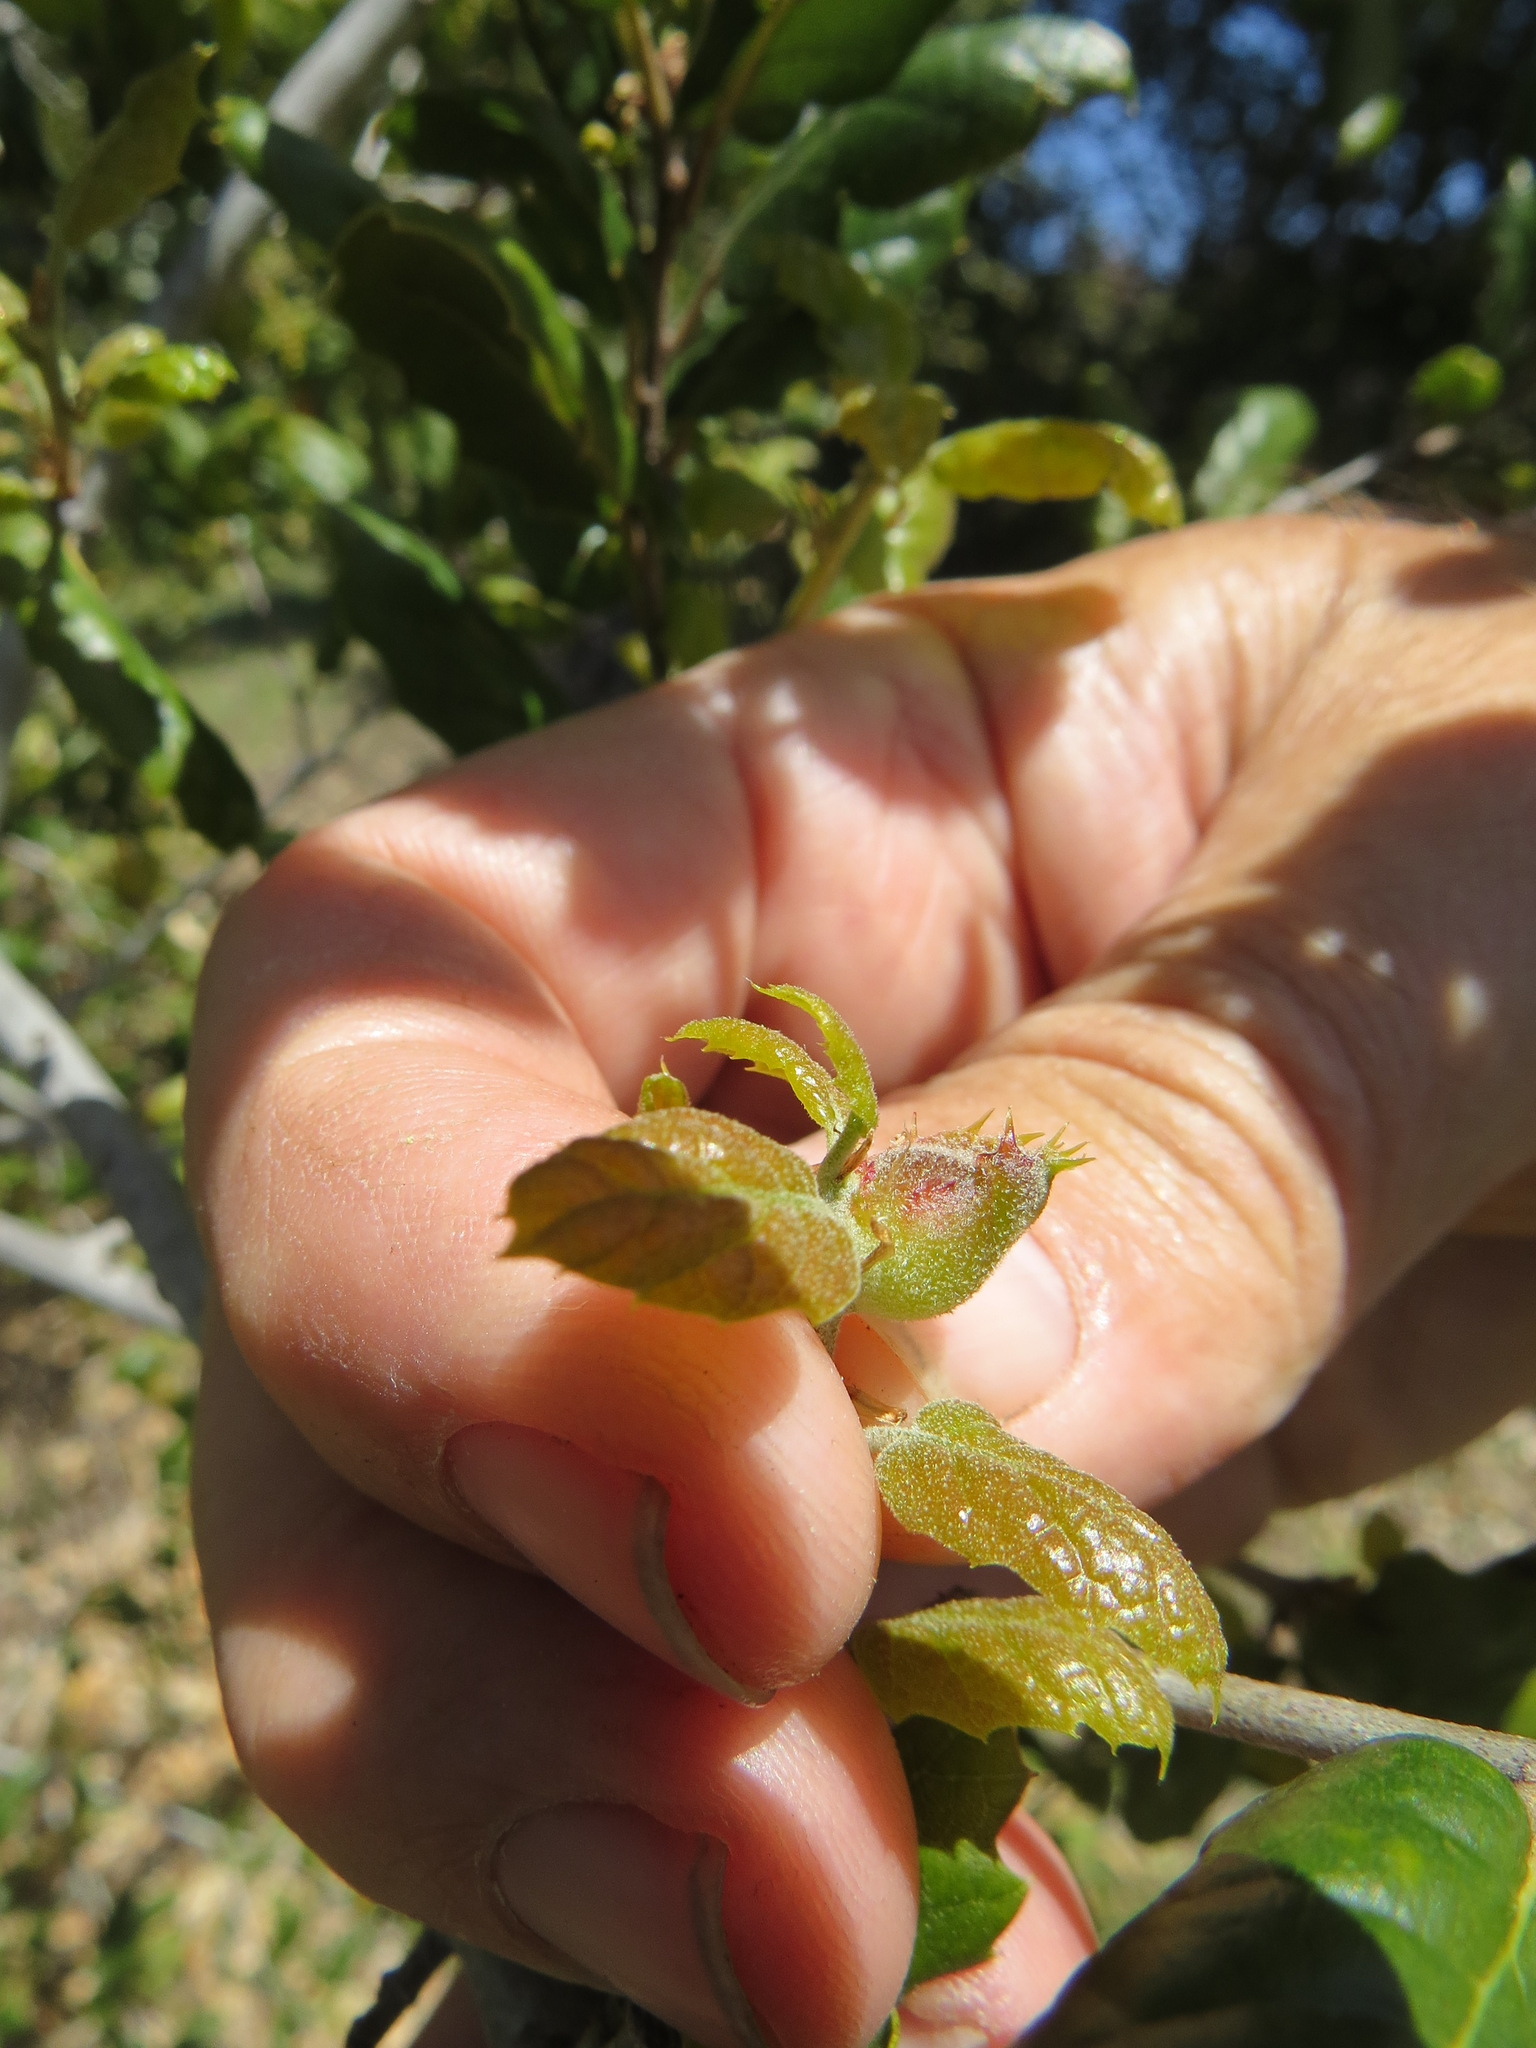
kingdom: Animalia
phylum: Arthropoda
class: Insecta
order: Hymenoptera
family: Cynipidae
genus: Callirhytis
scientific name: Callirhytis
